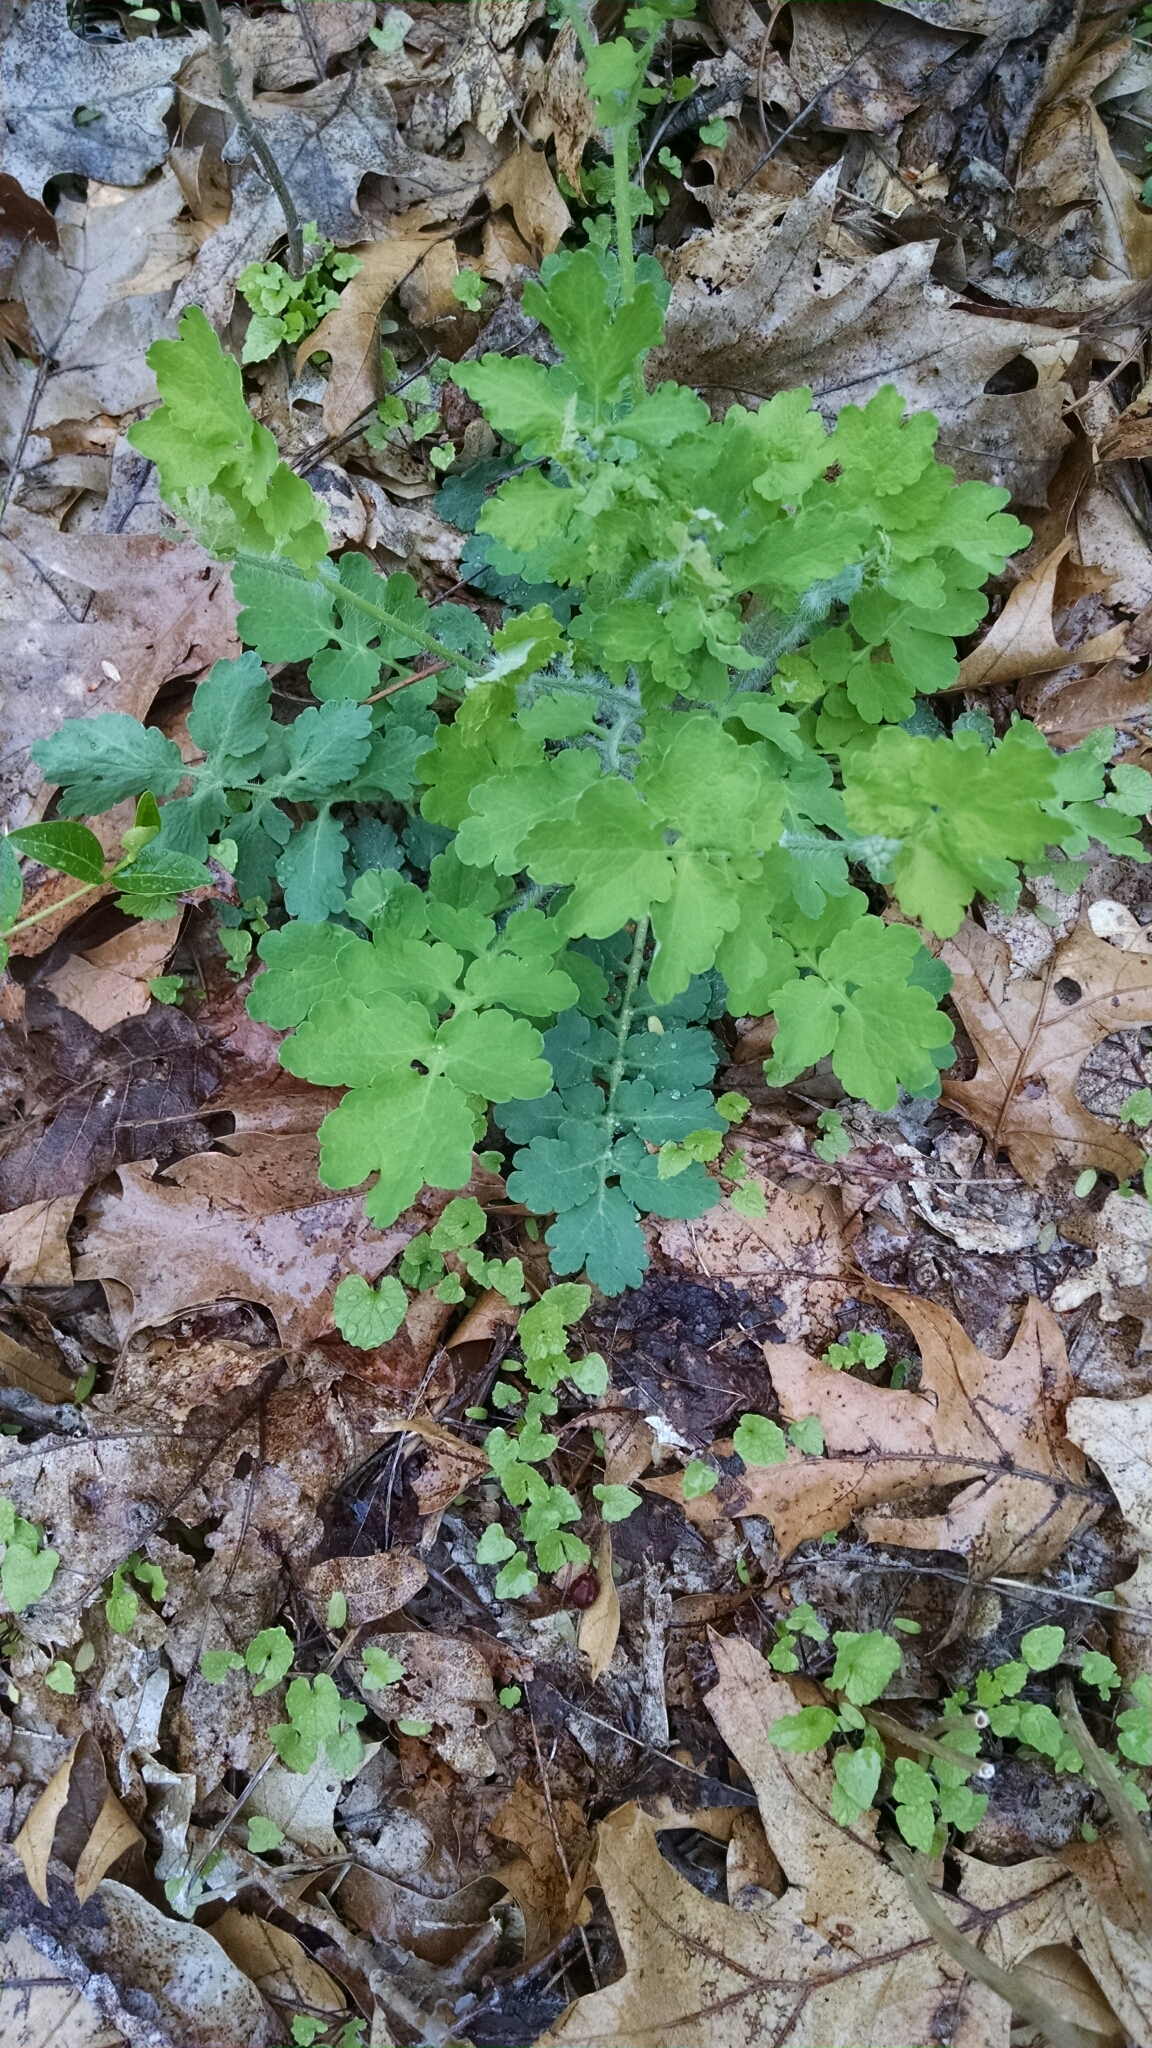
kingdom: Plantae
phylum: Tracheophyta
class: Magnoliopsida
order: Ranunculales
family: Papaveraceae
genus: Chelidonium
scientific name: Chelidonium majus
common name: Greater celandine
